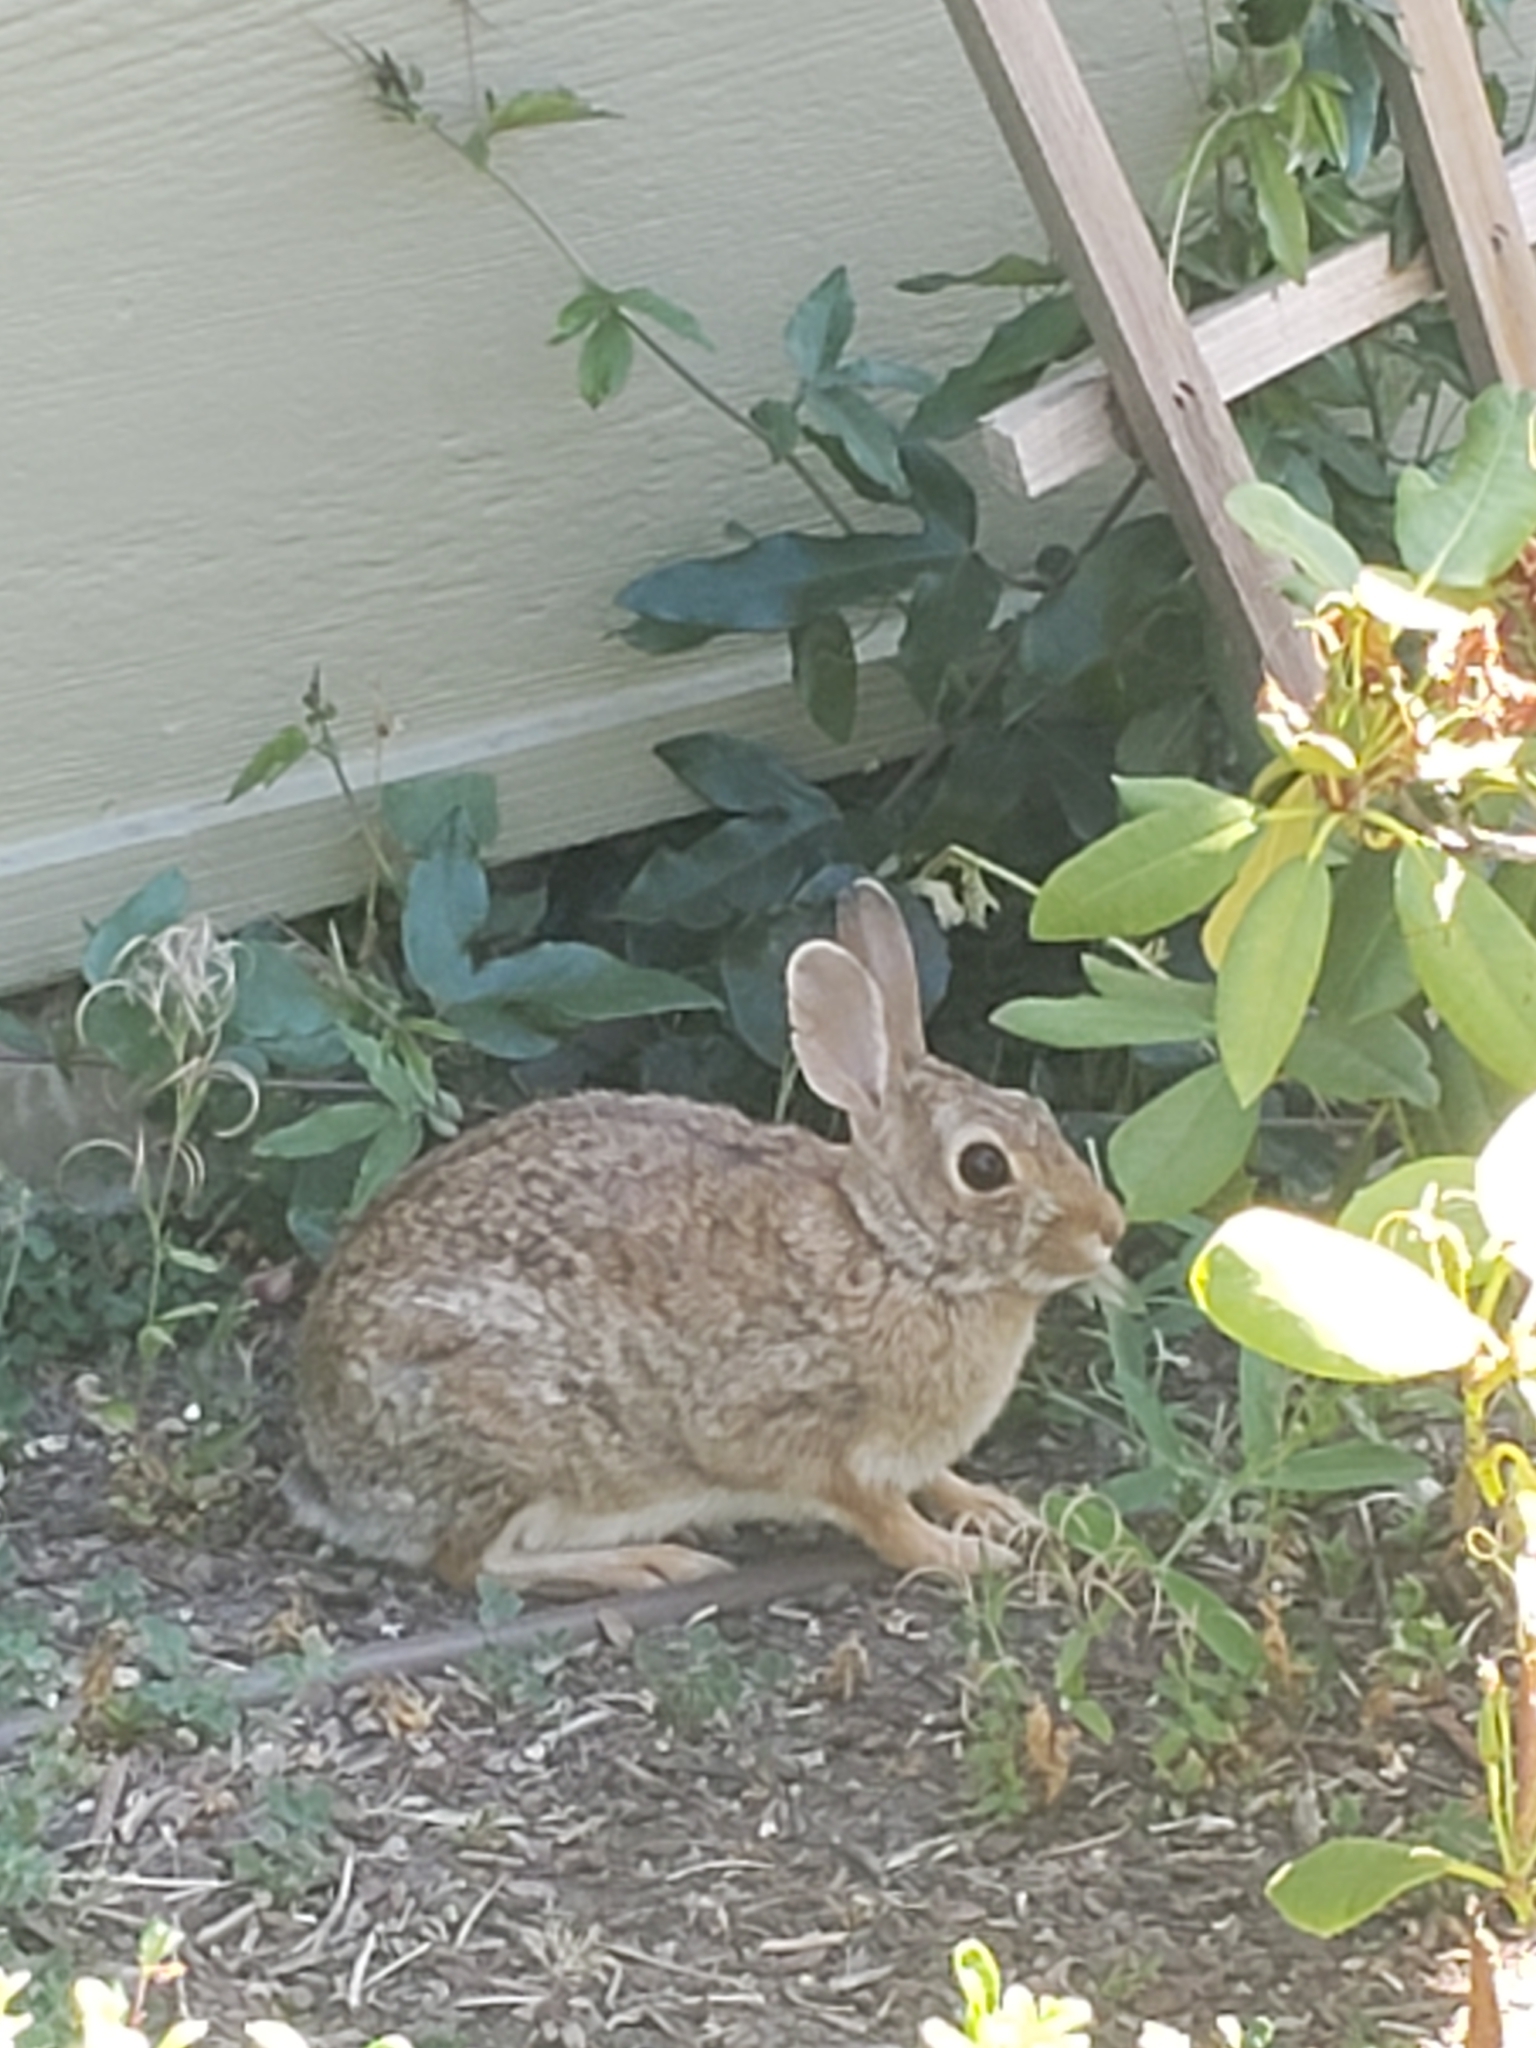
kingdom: Animalia
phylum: Chordata
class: Mammalia
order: Lagomorpha
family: Leporidae
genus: Sylvilagus
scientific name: Sylvilagus floridanus
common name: Eastern cottontail
